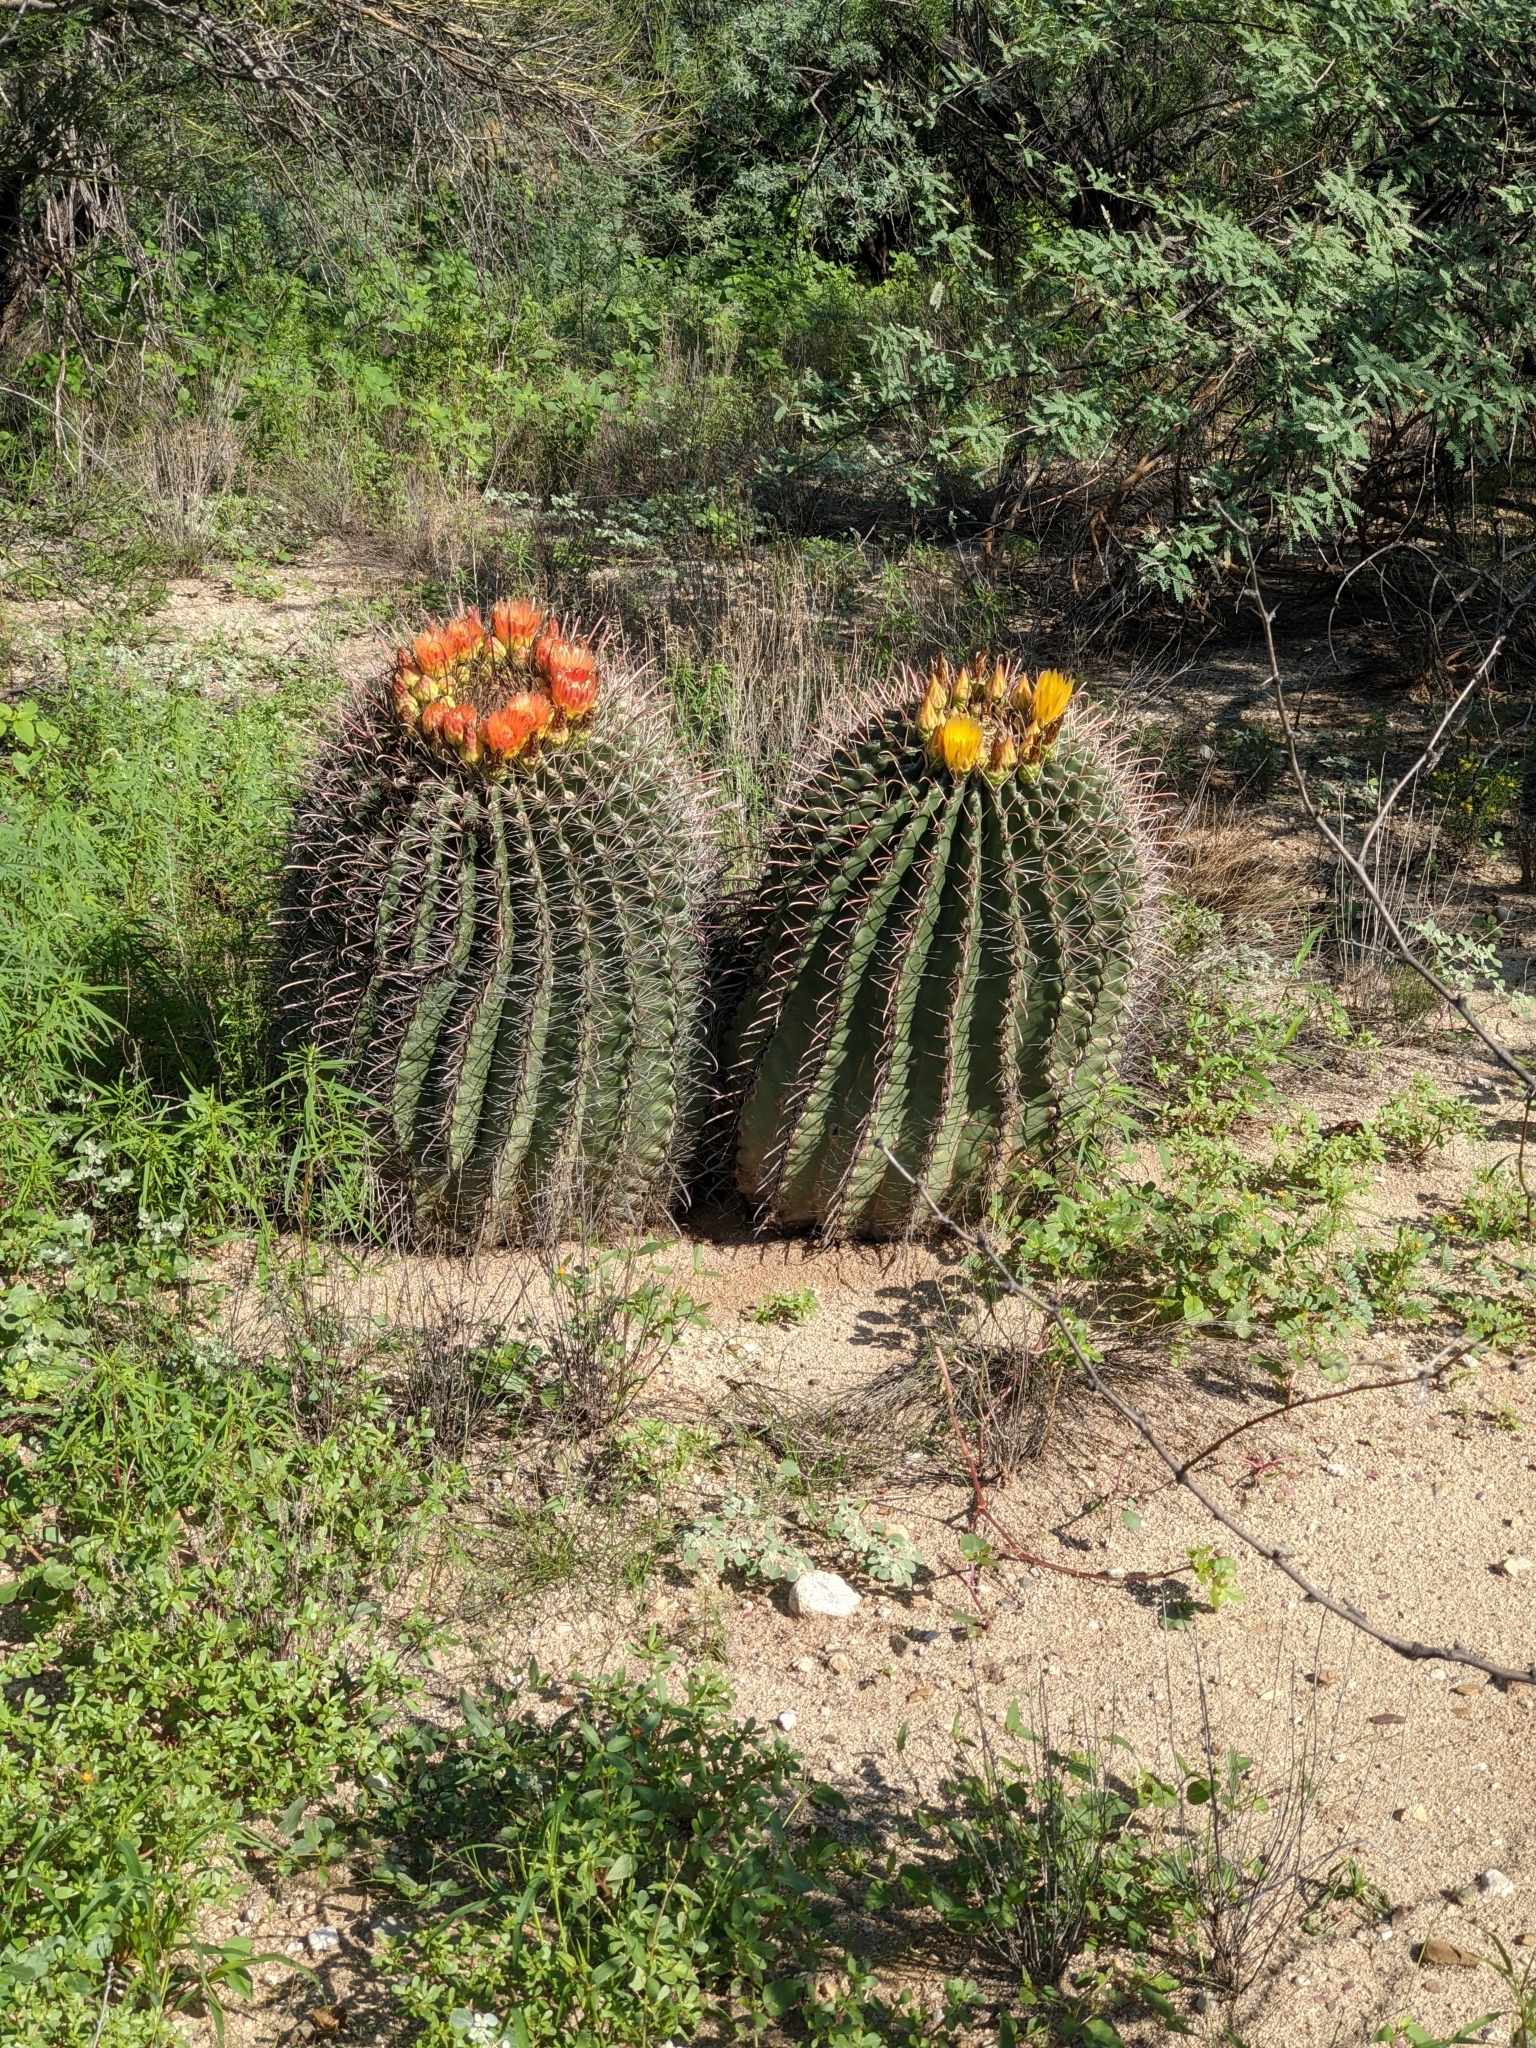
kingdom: Plantae
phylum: Tracheophyta
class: Magnoliopsida
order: Caryophyllales
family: Cactaceae
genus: Ferocactus
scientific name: Ferocactus wislizeni
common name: Candy barrel cactus
